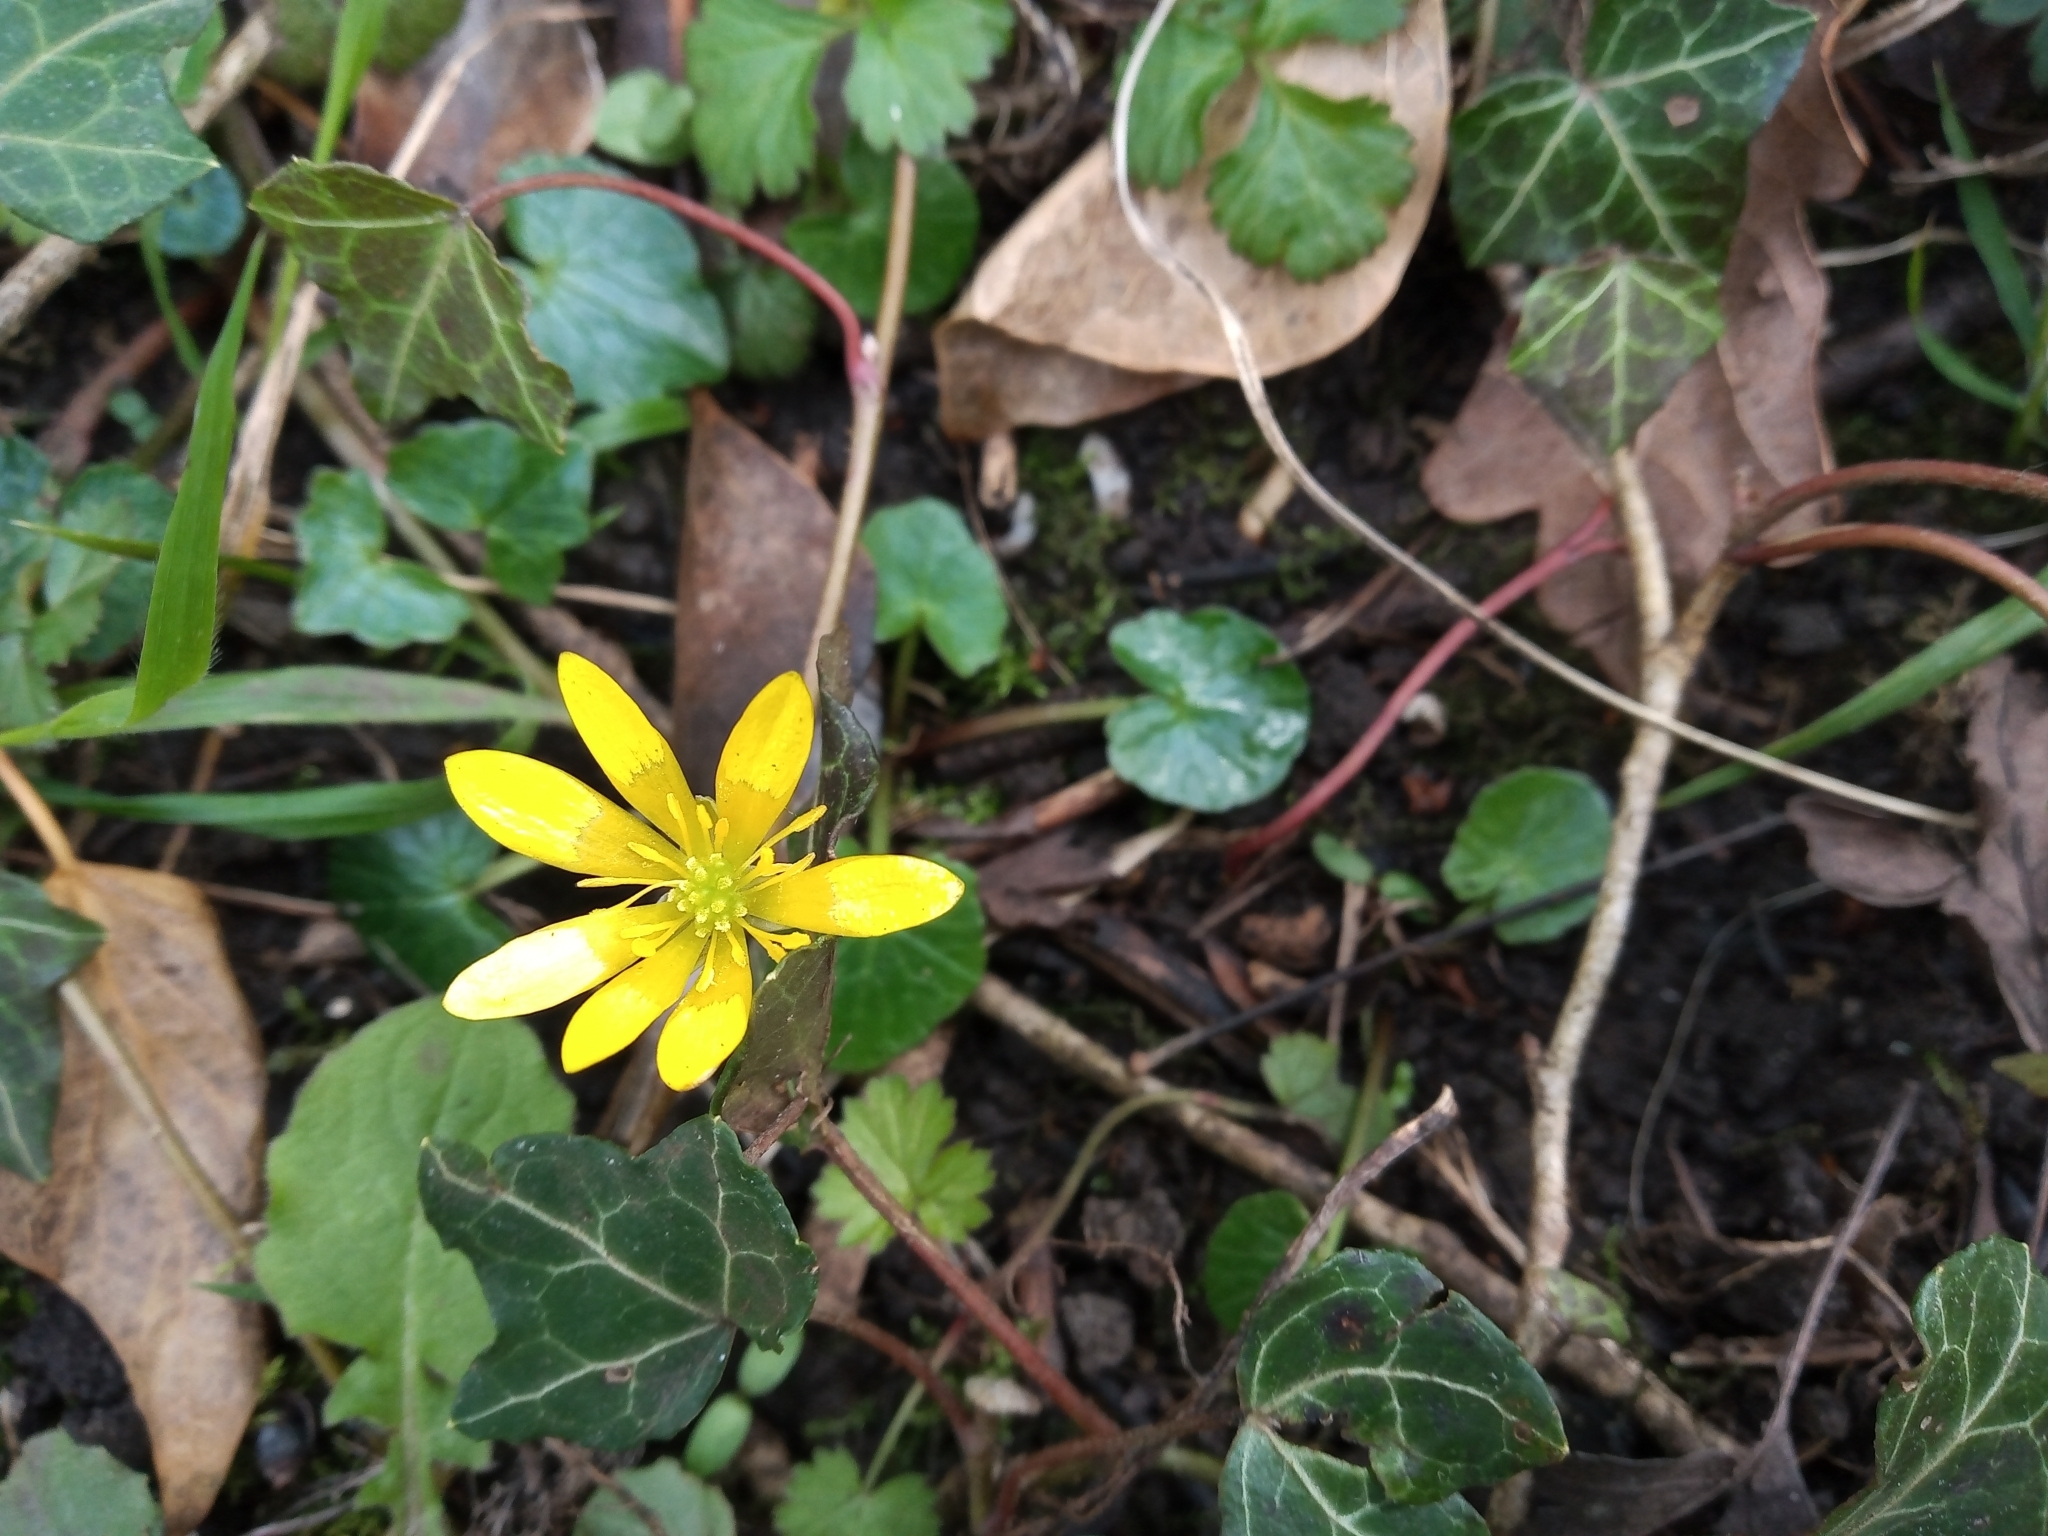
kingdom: Plantae
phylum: Tracheophyta
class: Magnoliopsida
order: Ranunculales
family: Ranunculaceae
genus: Ficaria
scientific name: Ficaria verna
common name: Lesser celandine
